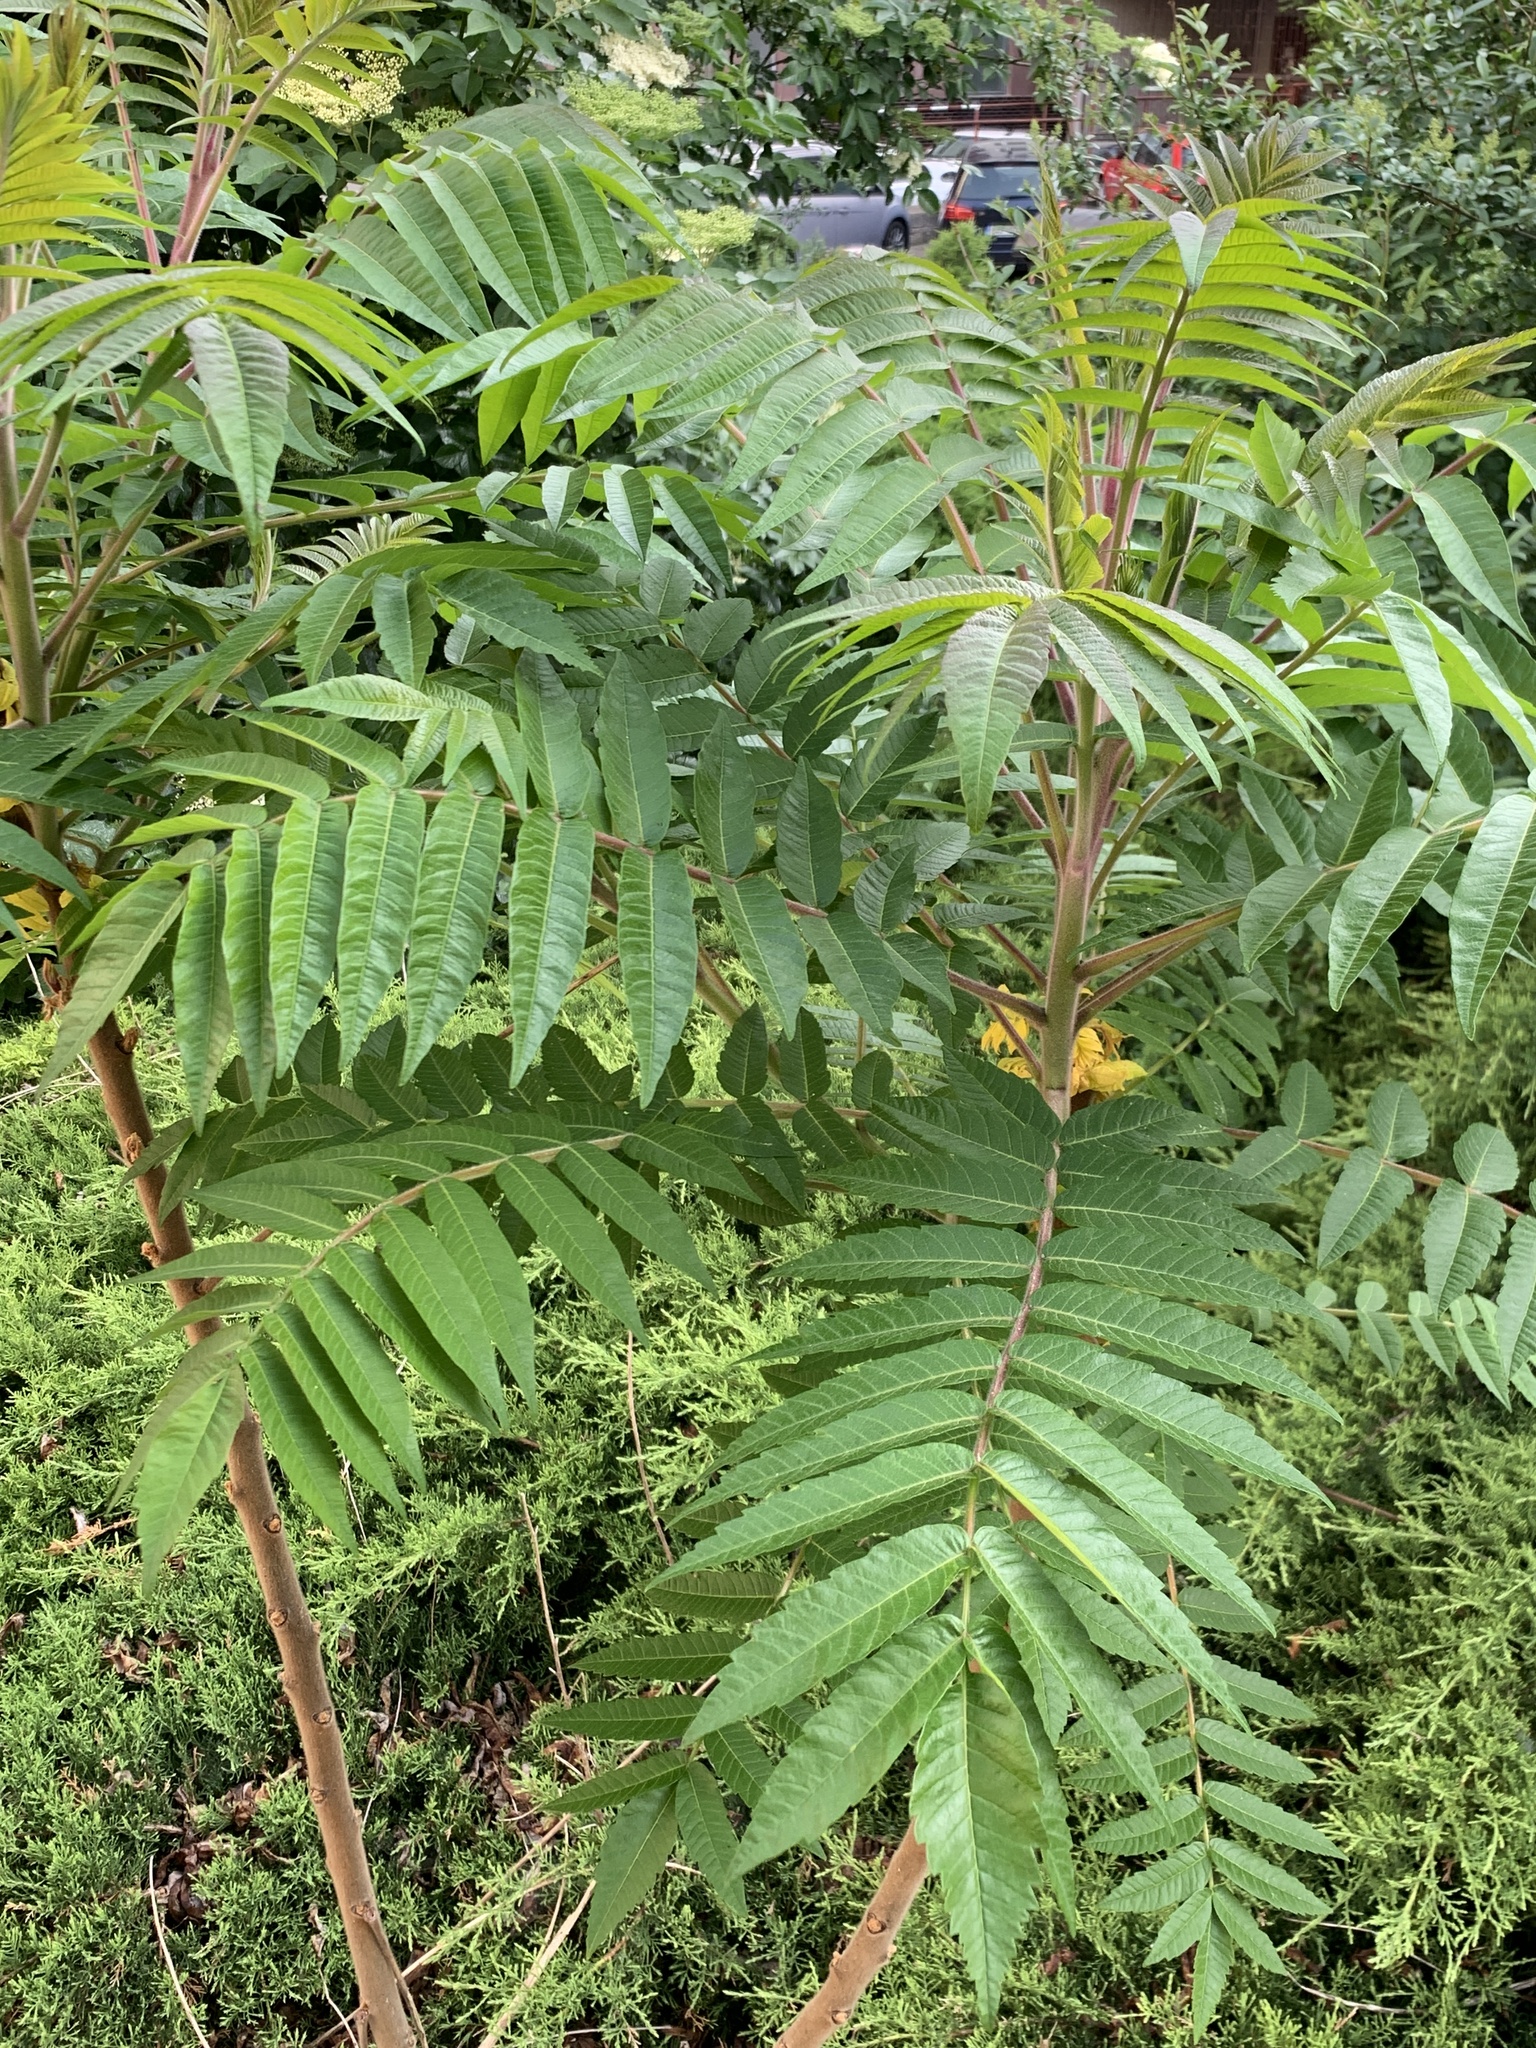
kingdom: Plantae
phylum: Tracheophyta
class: Magnoliopsida
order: Sapindales
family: Anacardiaceae
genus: Rhus
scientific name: Rhus typhina
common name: Staghorn sumac
